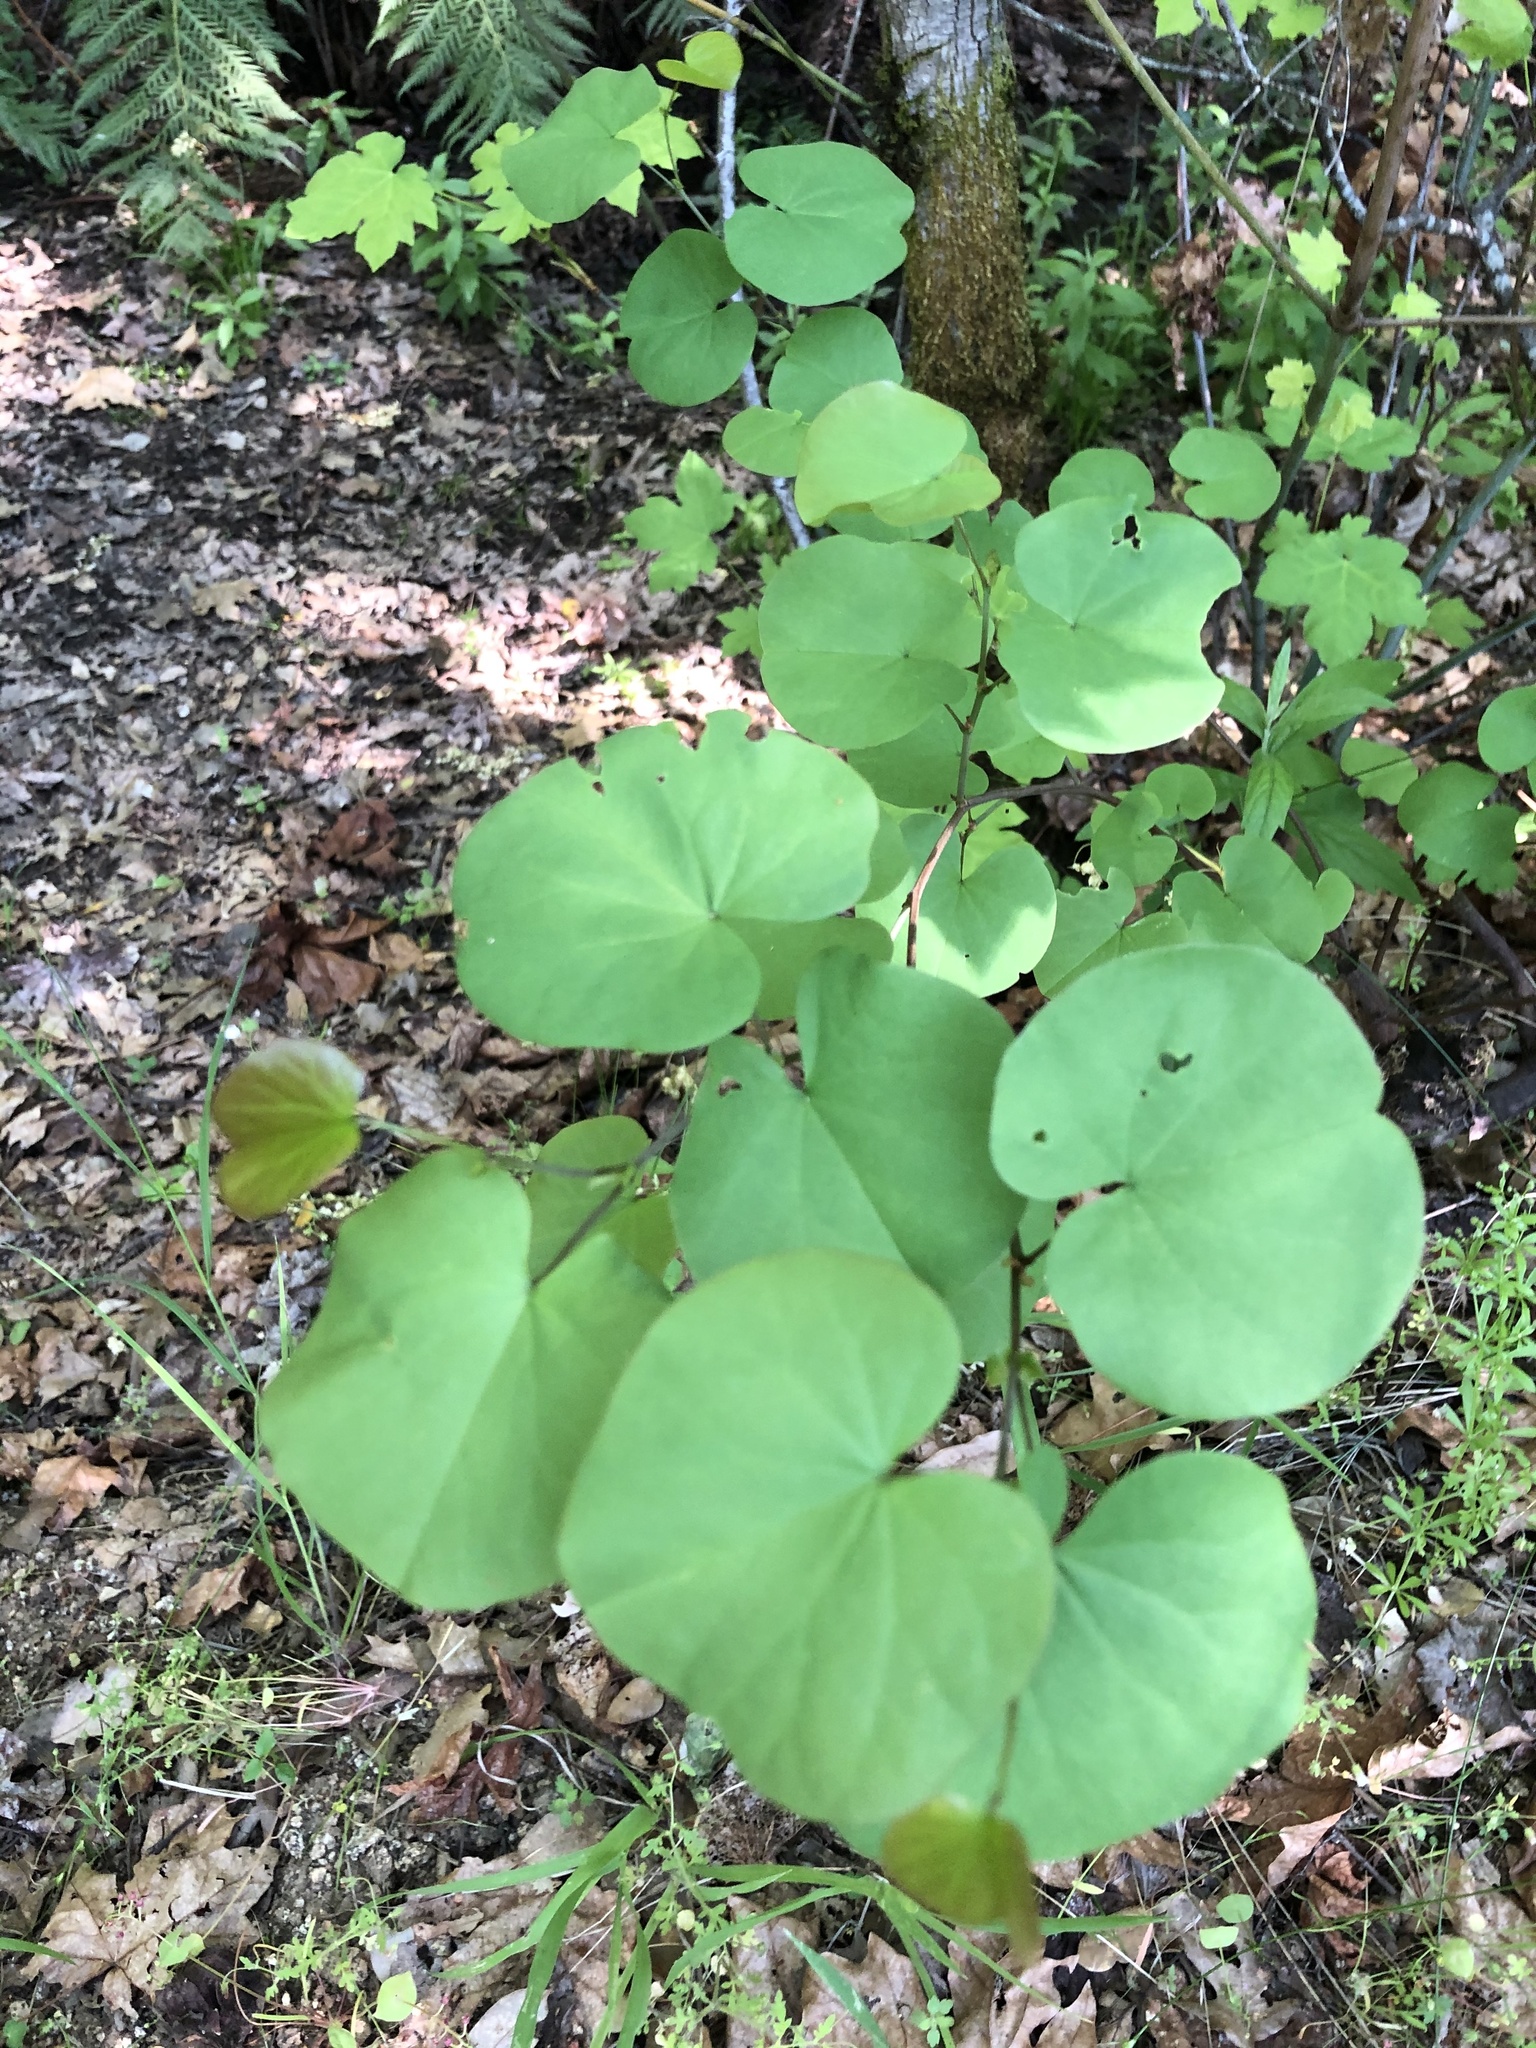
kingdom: Plantae
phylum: Tracheophyta
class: Magnoliopsida
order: Fabales
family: Fabaceae
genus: Cercis
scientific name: Cercis occidentalis
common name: California redbud
